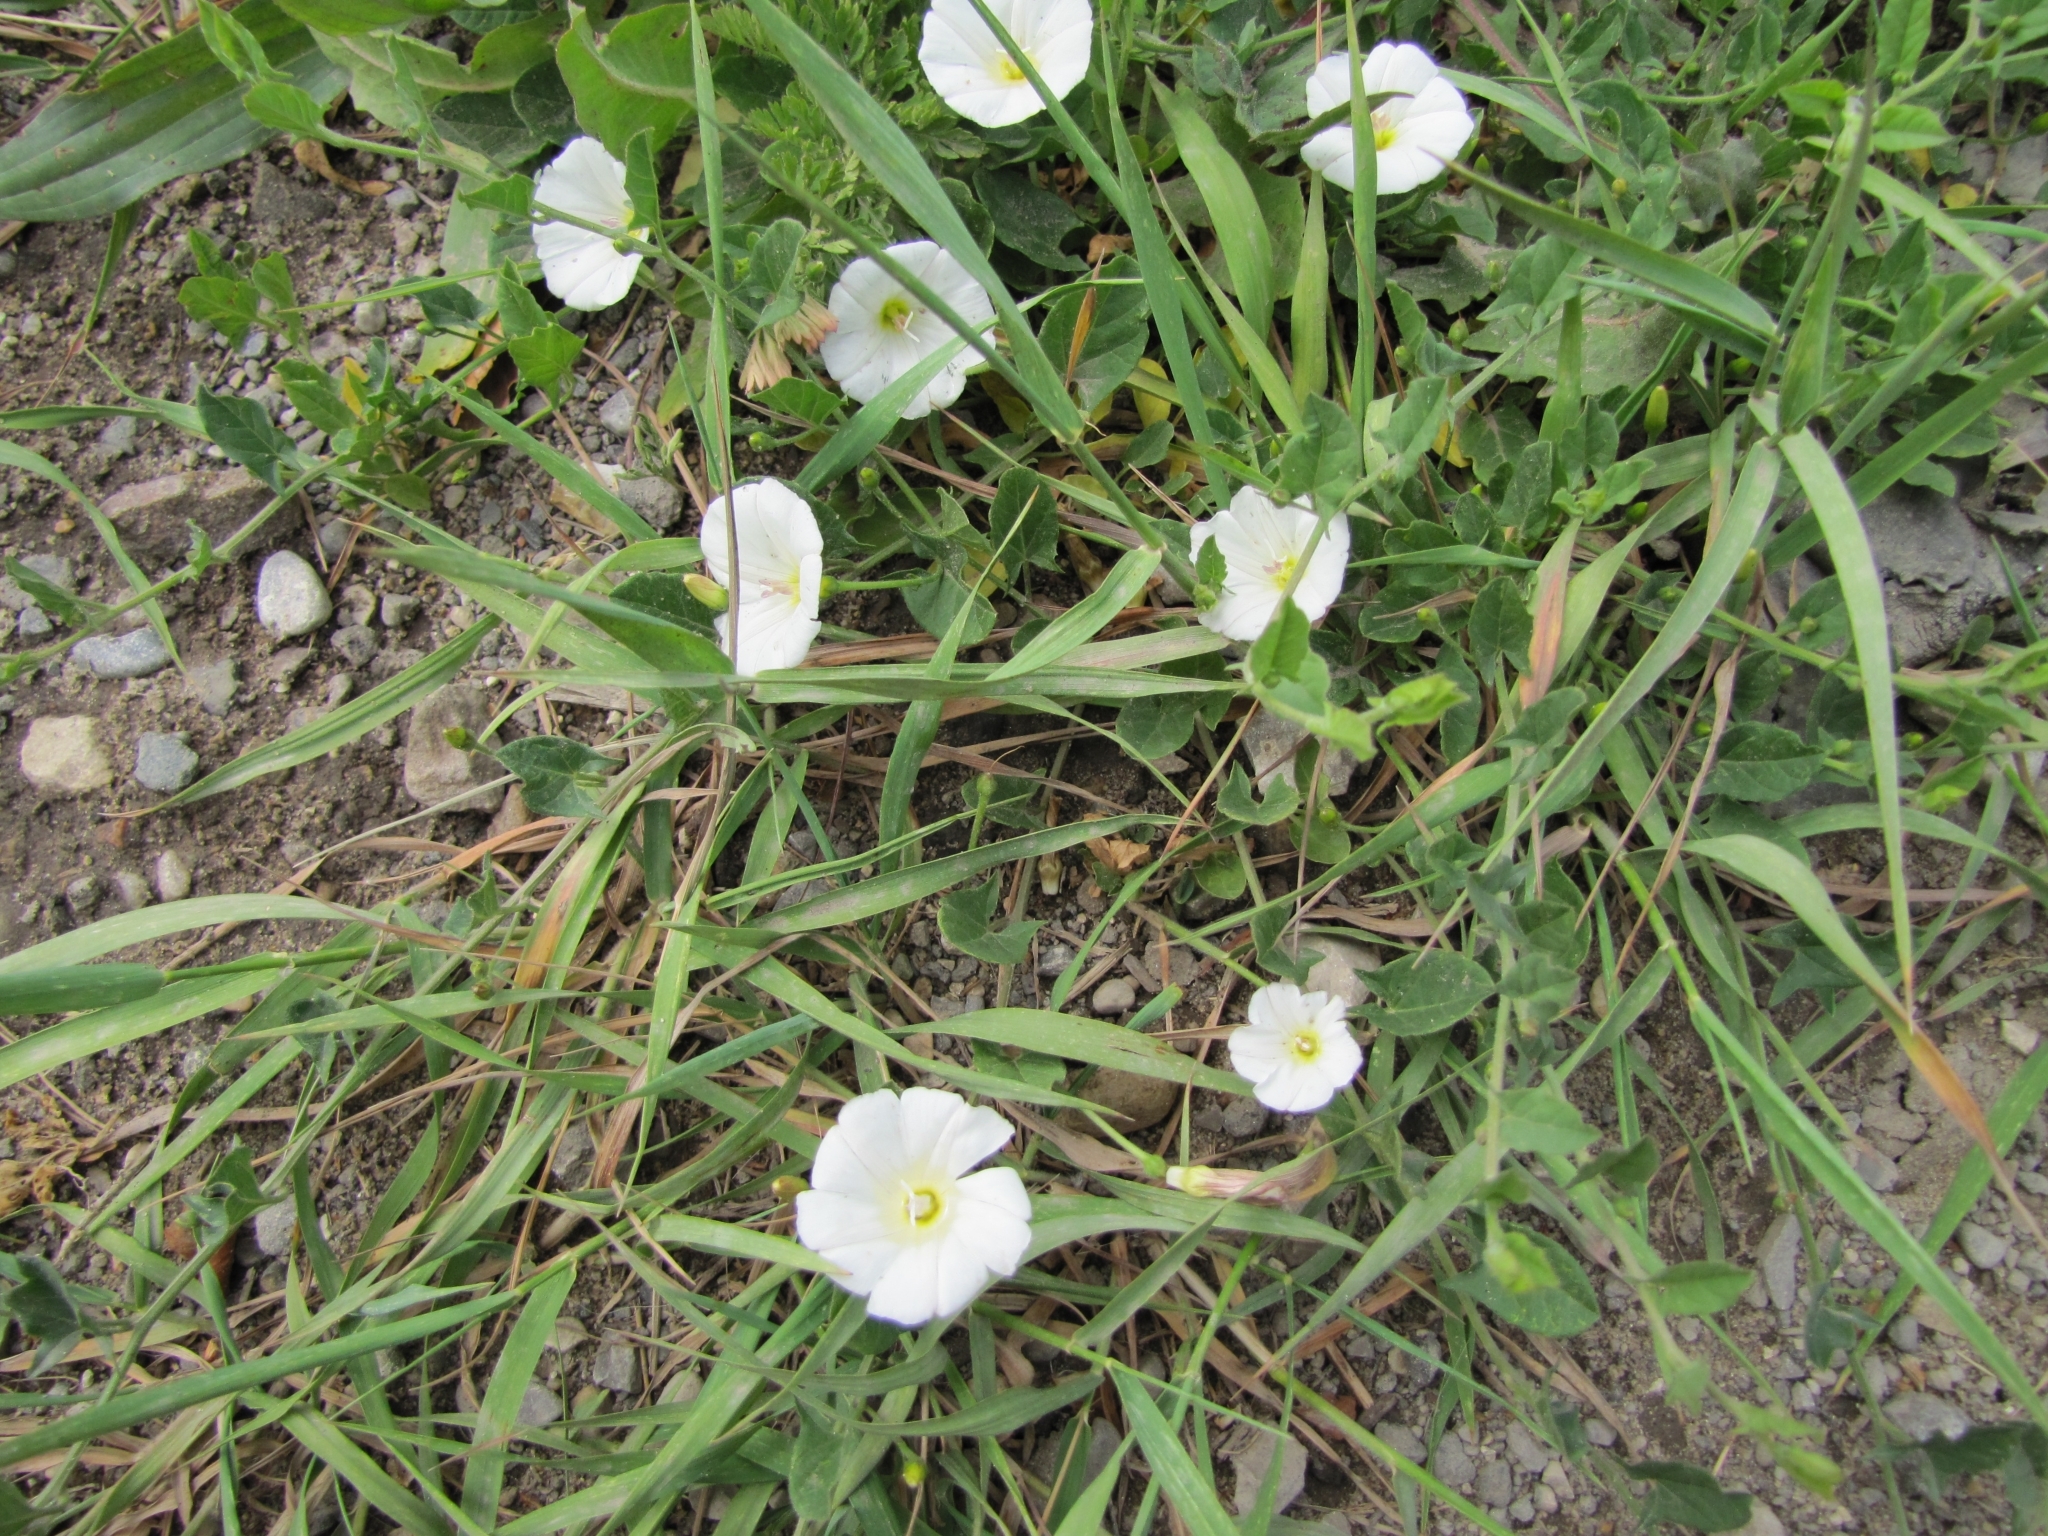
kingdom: Plantae
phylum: Tracheophyta
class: Magnoliopsida
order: Solanales
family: Convolvulaceae
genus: Convolvulus
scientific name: Convolvulus arvensis
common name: Field bindweed
